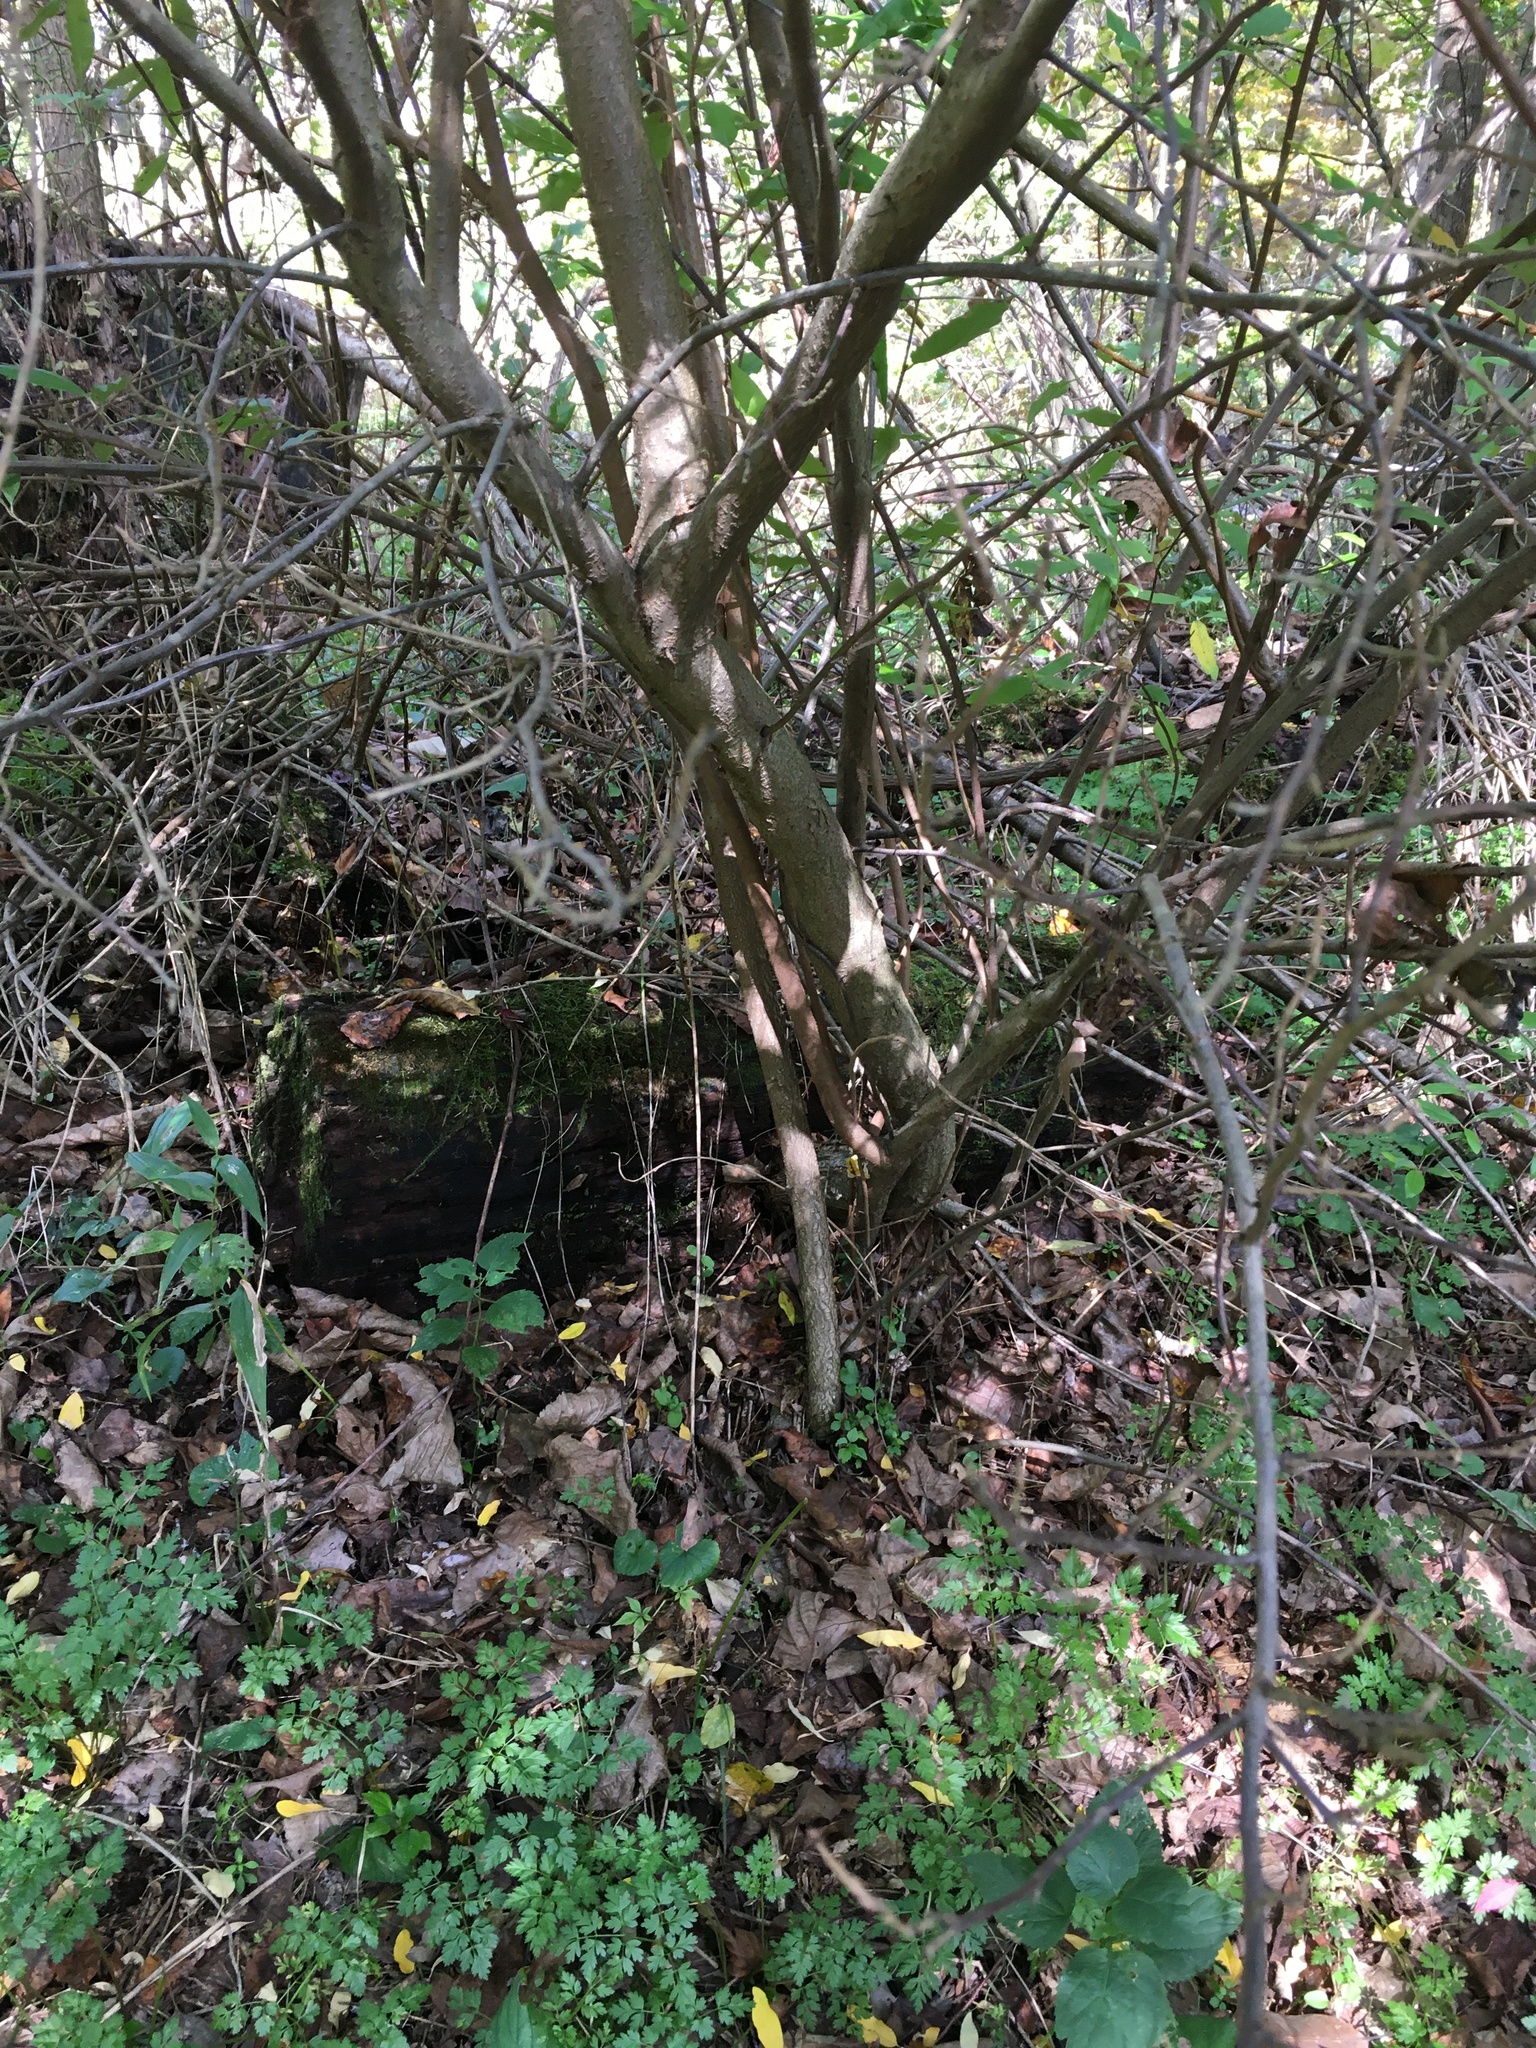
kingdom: Plantae
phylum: Tracheophyta
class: Magnoliopsida
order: Rosales
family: Elaeagnaceae
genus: Elaeagnus
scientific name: Elaeagnus umbellata
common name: Autumn olive
